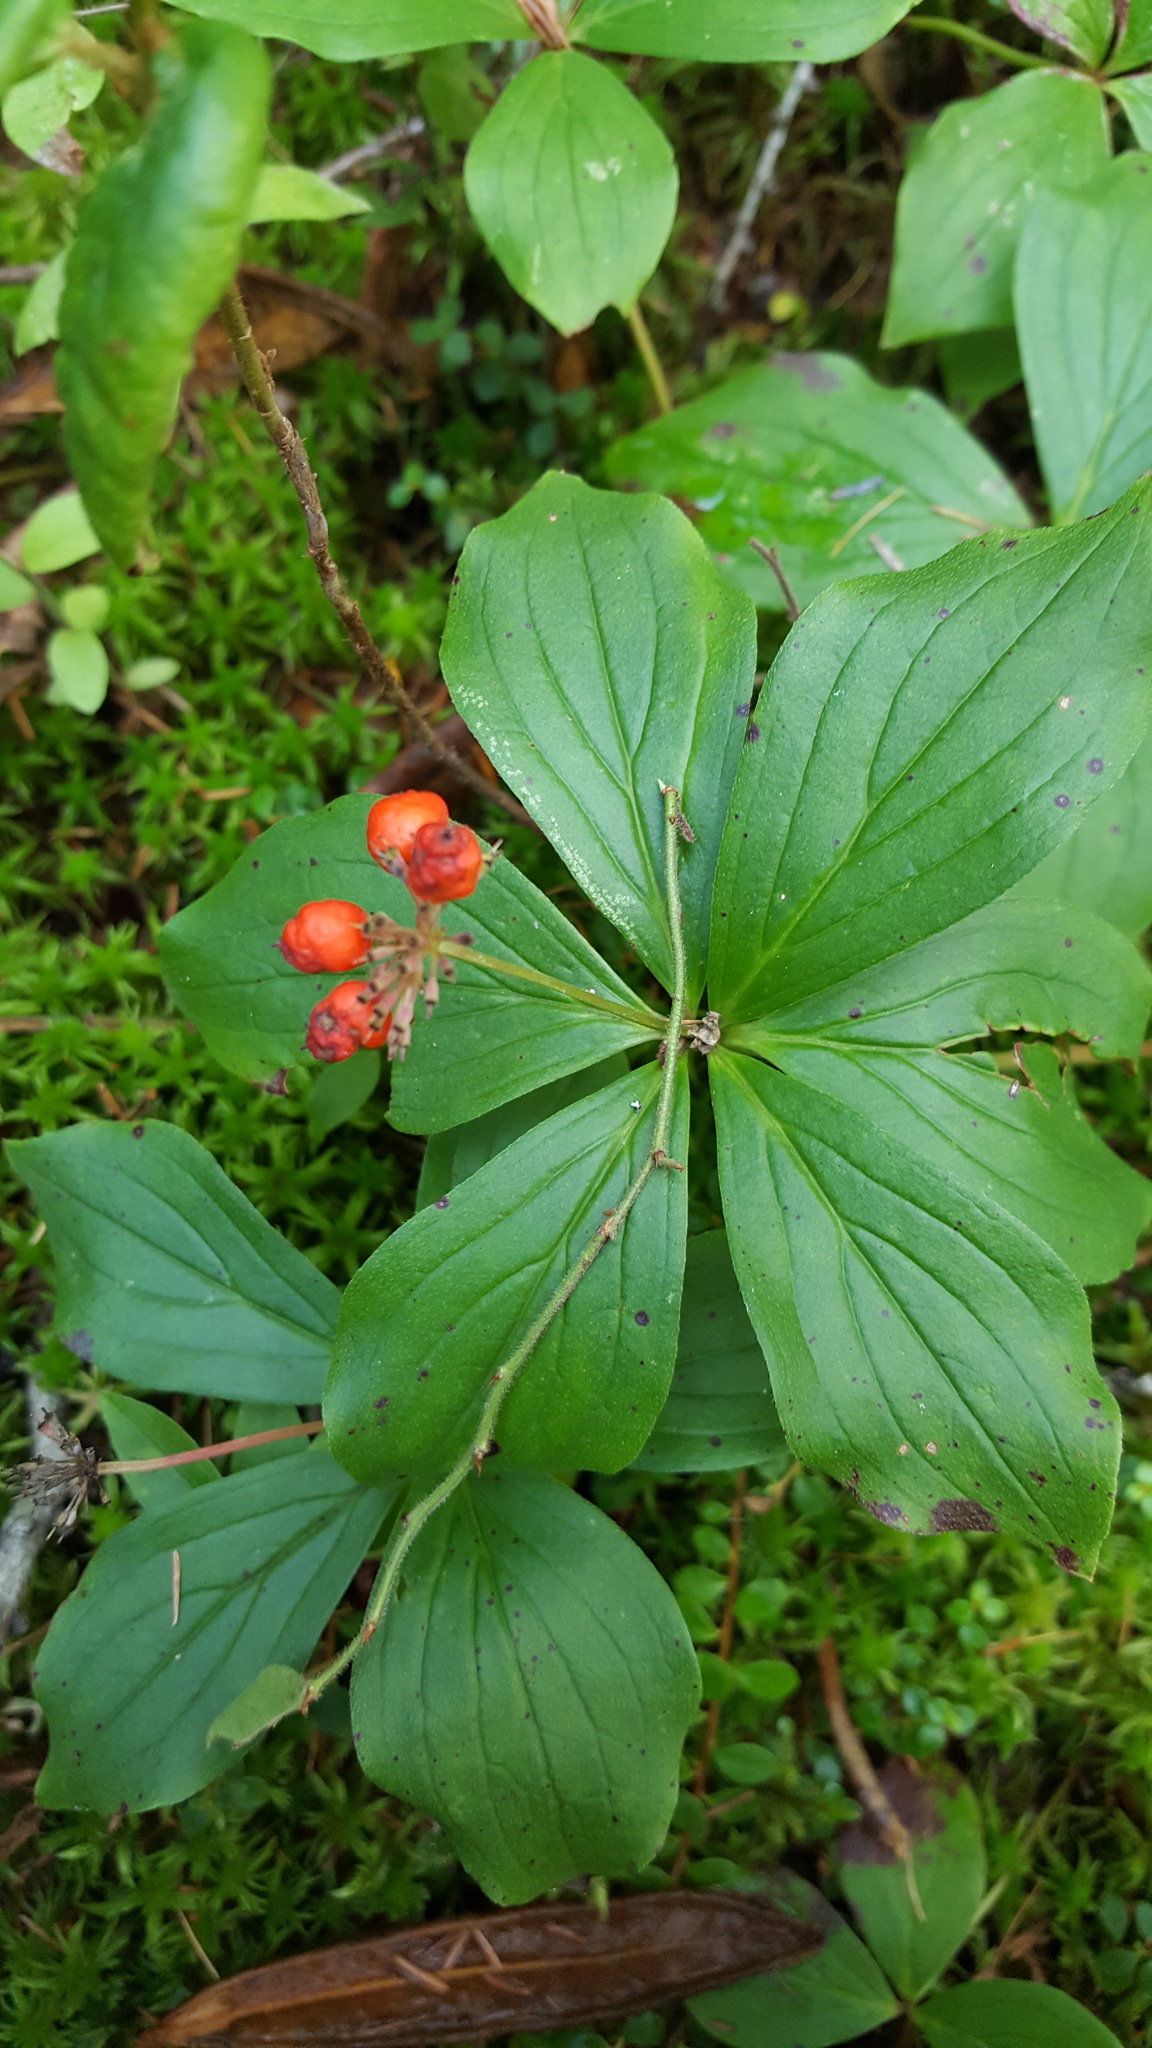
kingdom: Plantae
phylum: Tracheophyta
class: Magnoliopsida
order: Cornales
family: Cornaceae
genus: Cornus
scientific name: Cornus canadensis
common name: Creeping dogwood
